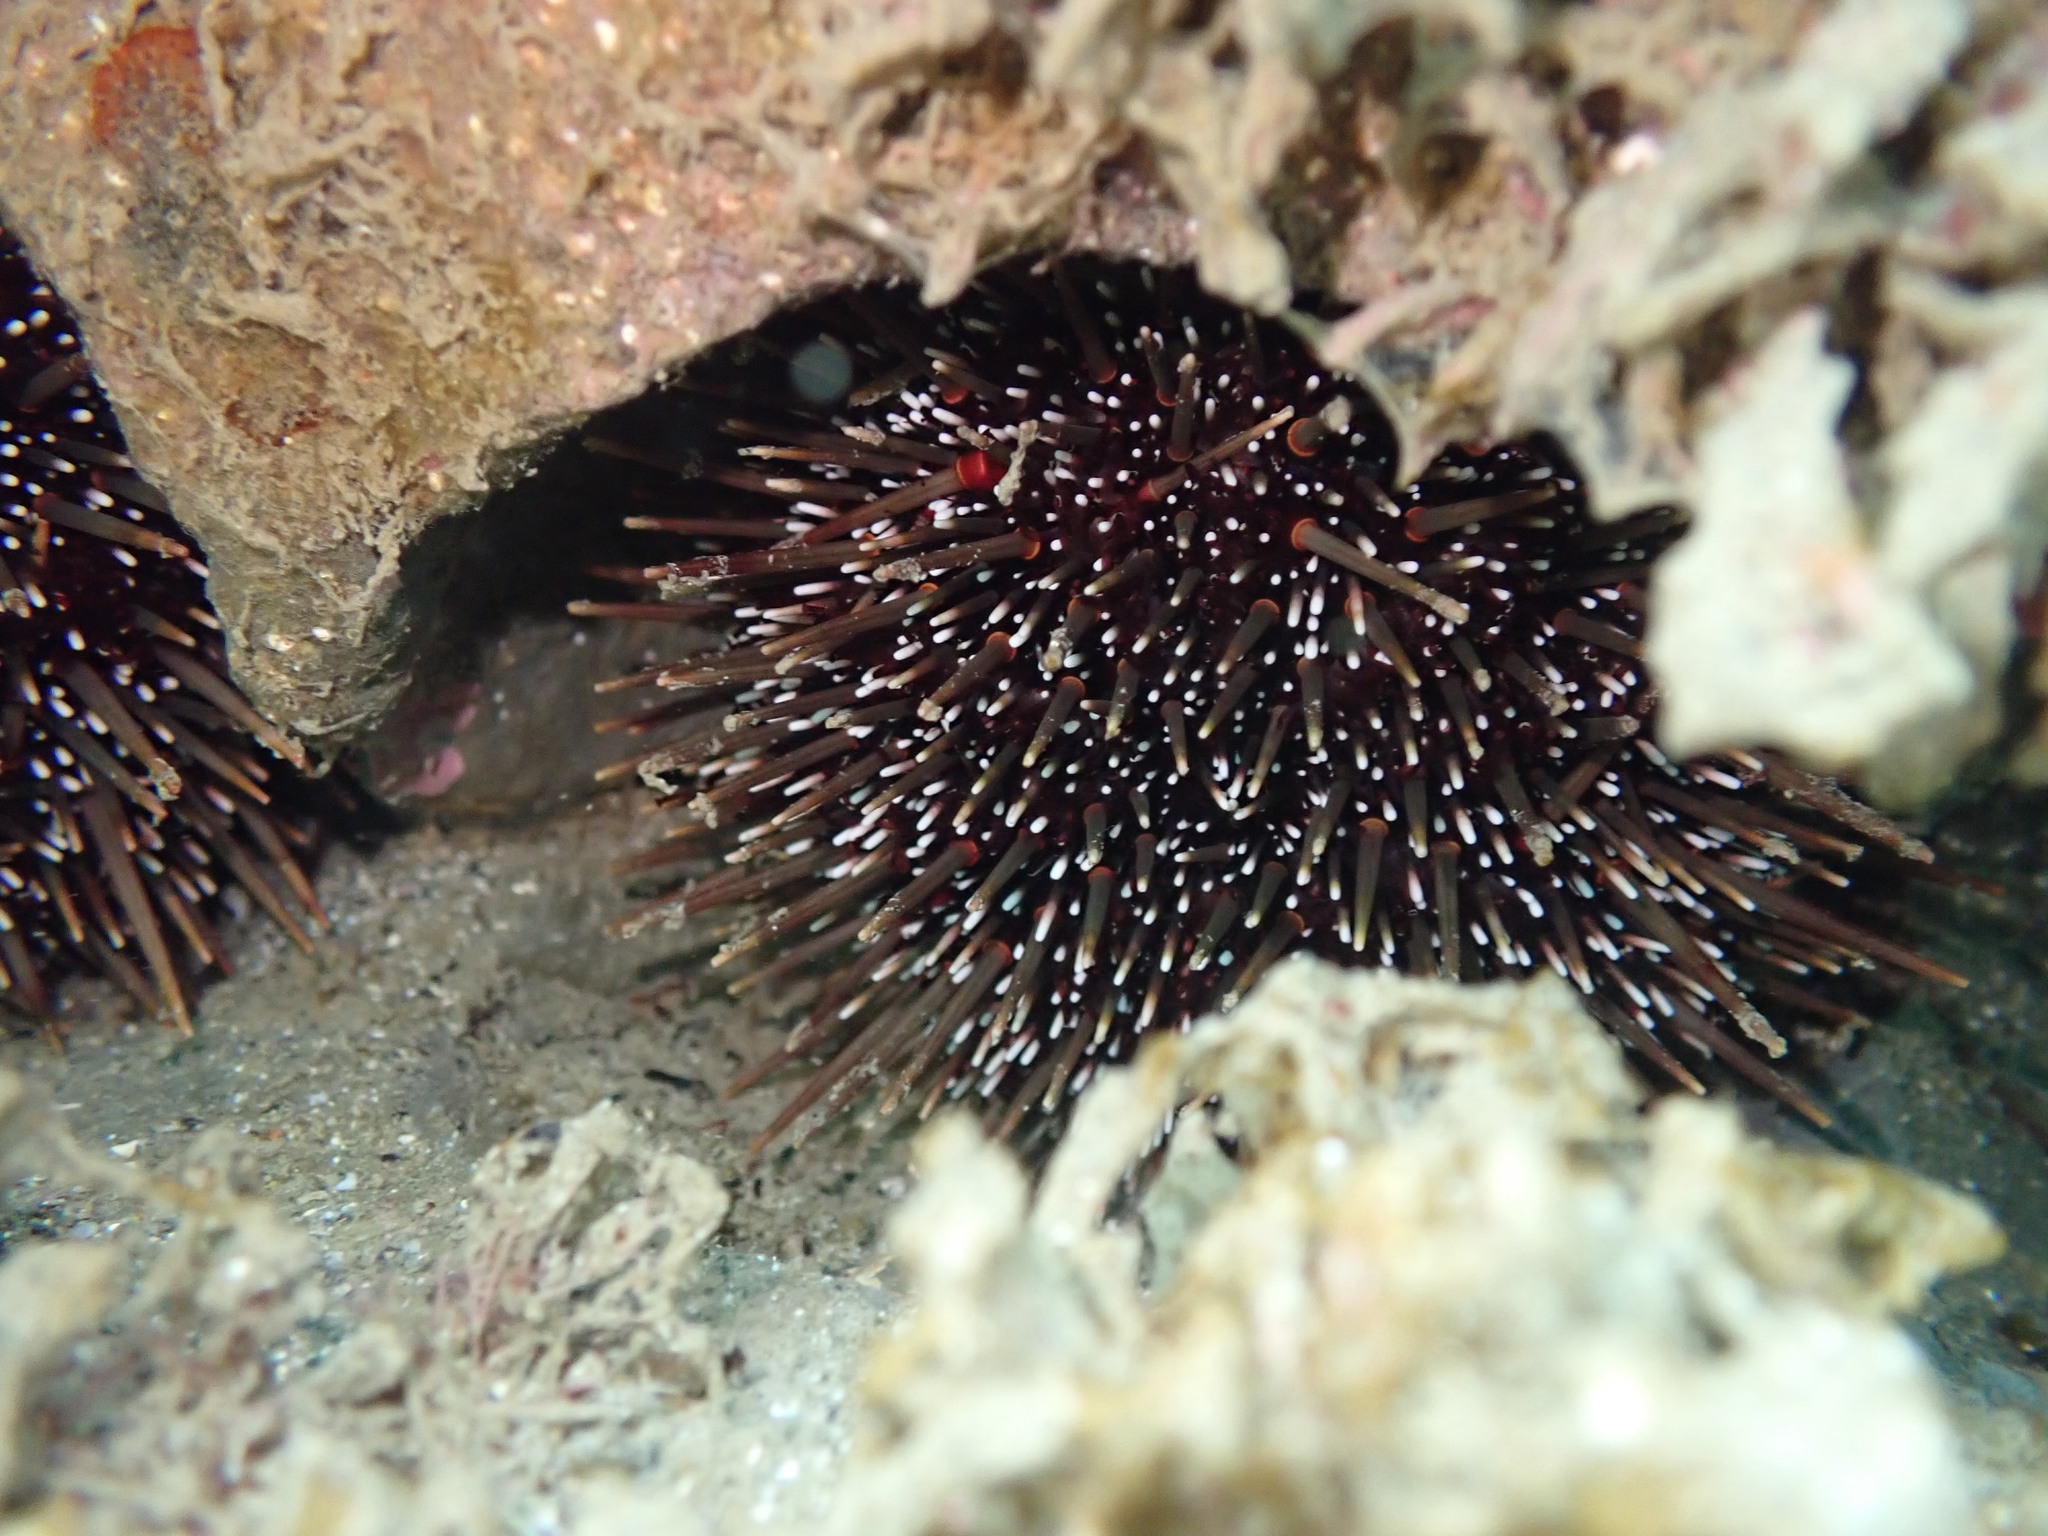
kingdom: Animalia
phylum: Echinodermata
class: Echinoidea
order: Camarodonta
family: Echinometridae
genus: Evechinus
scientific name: Evechinus chloroticus
